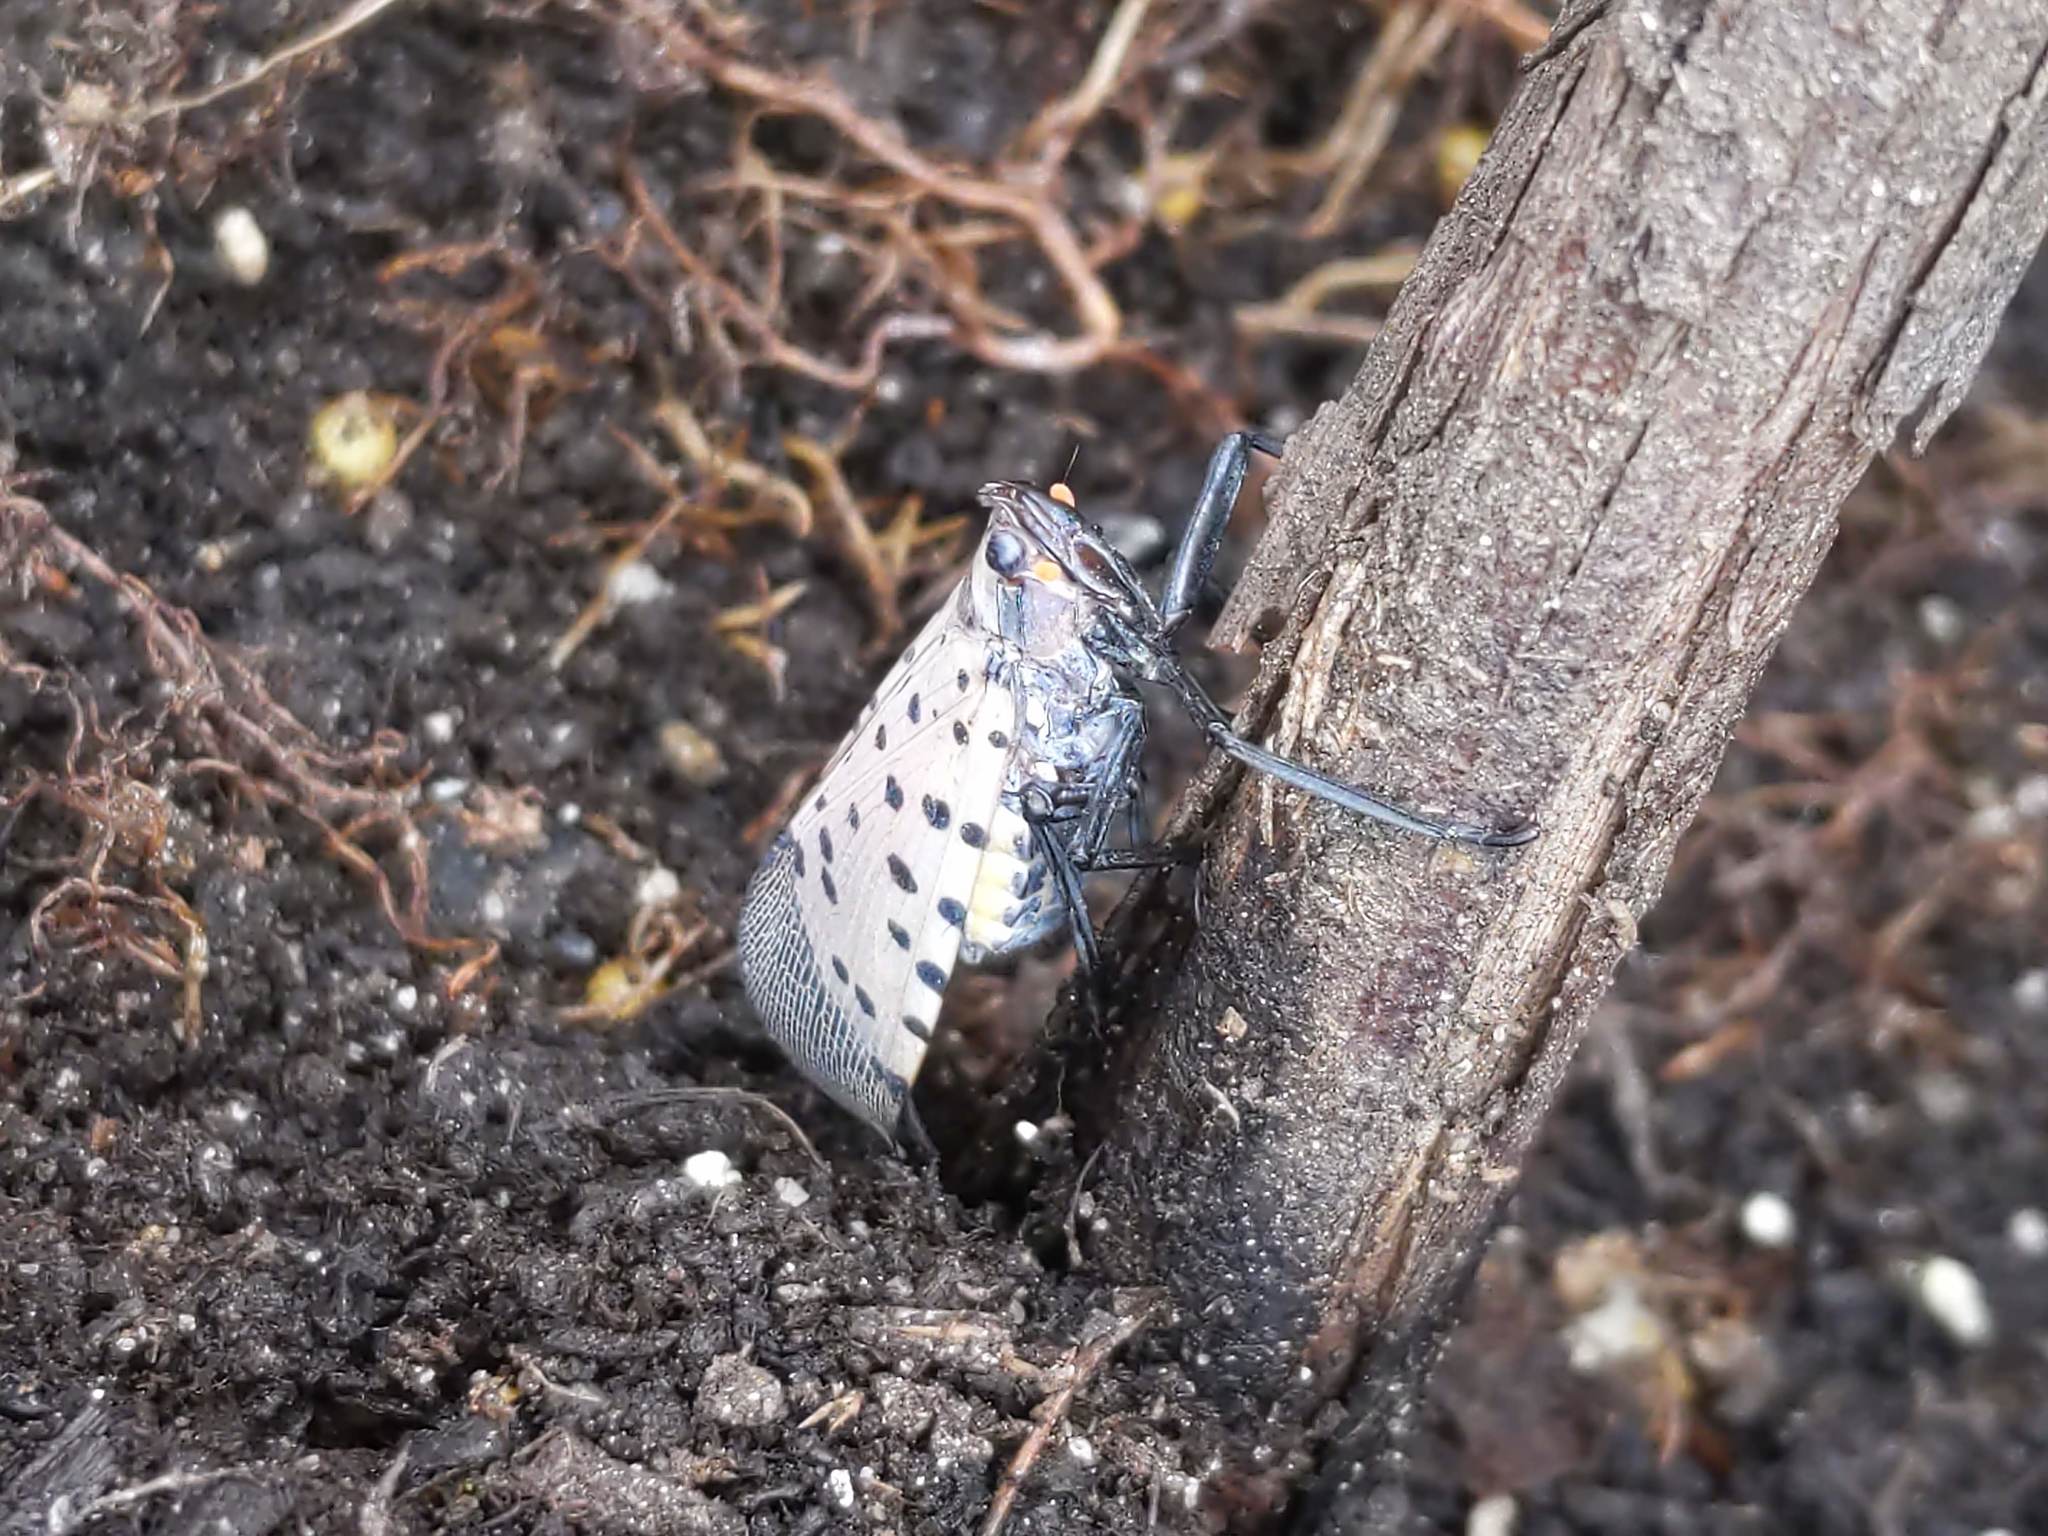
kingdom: Animalia
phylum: Arthropoda
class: Insecta
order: Hemiptera
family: Fulgoridae
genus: Lycorma
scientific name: Lycorma delicatula
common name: Spotted lanternfly
